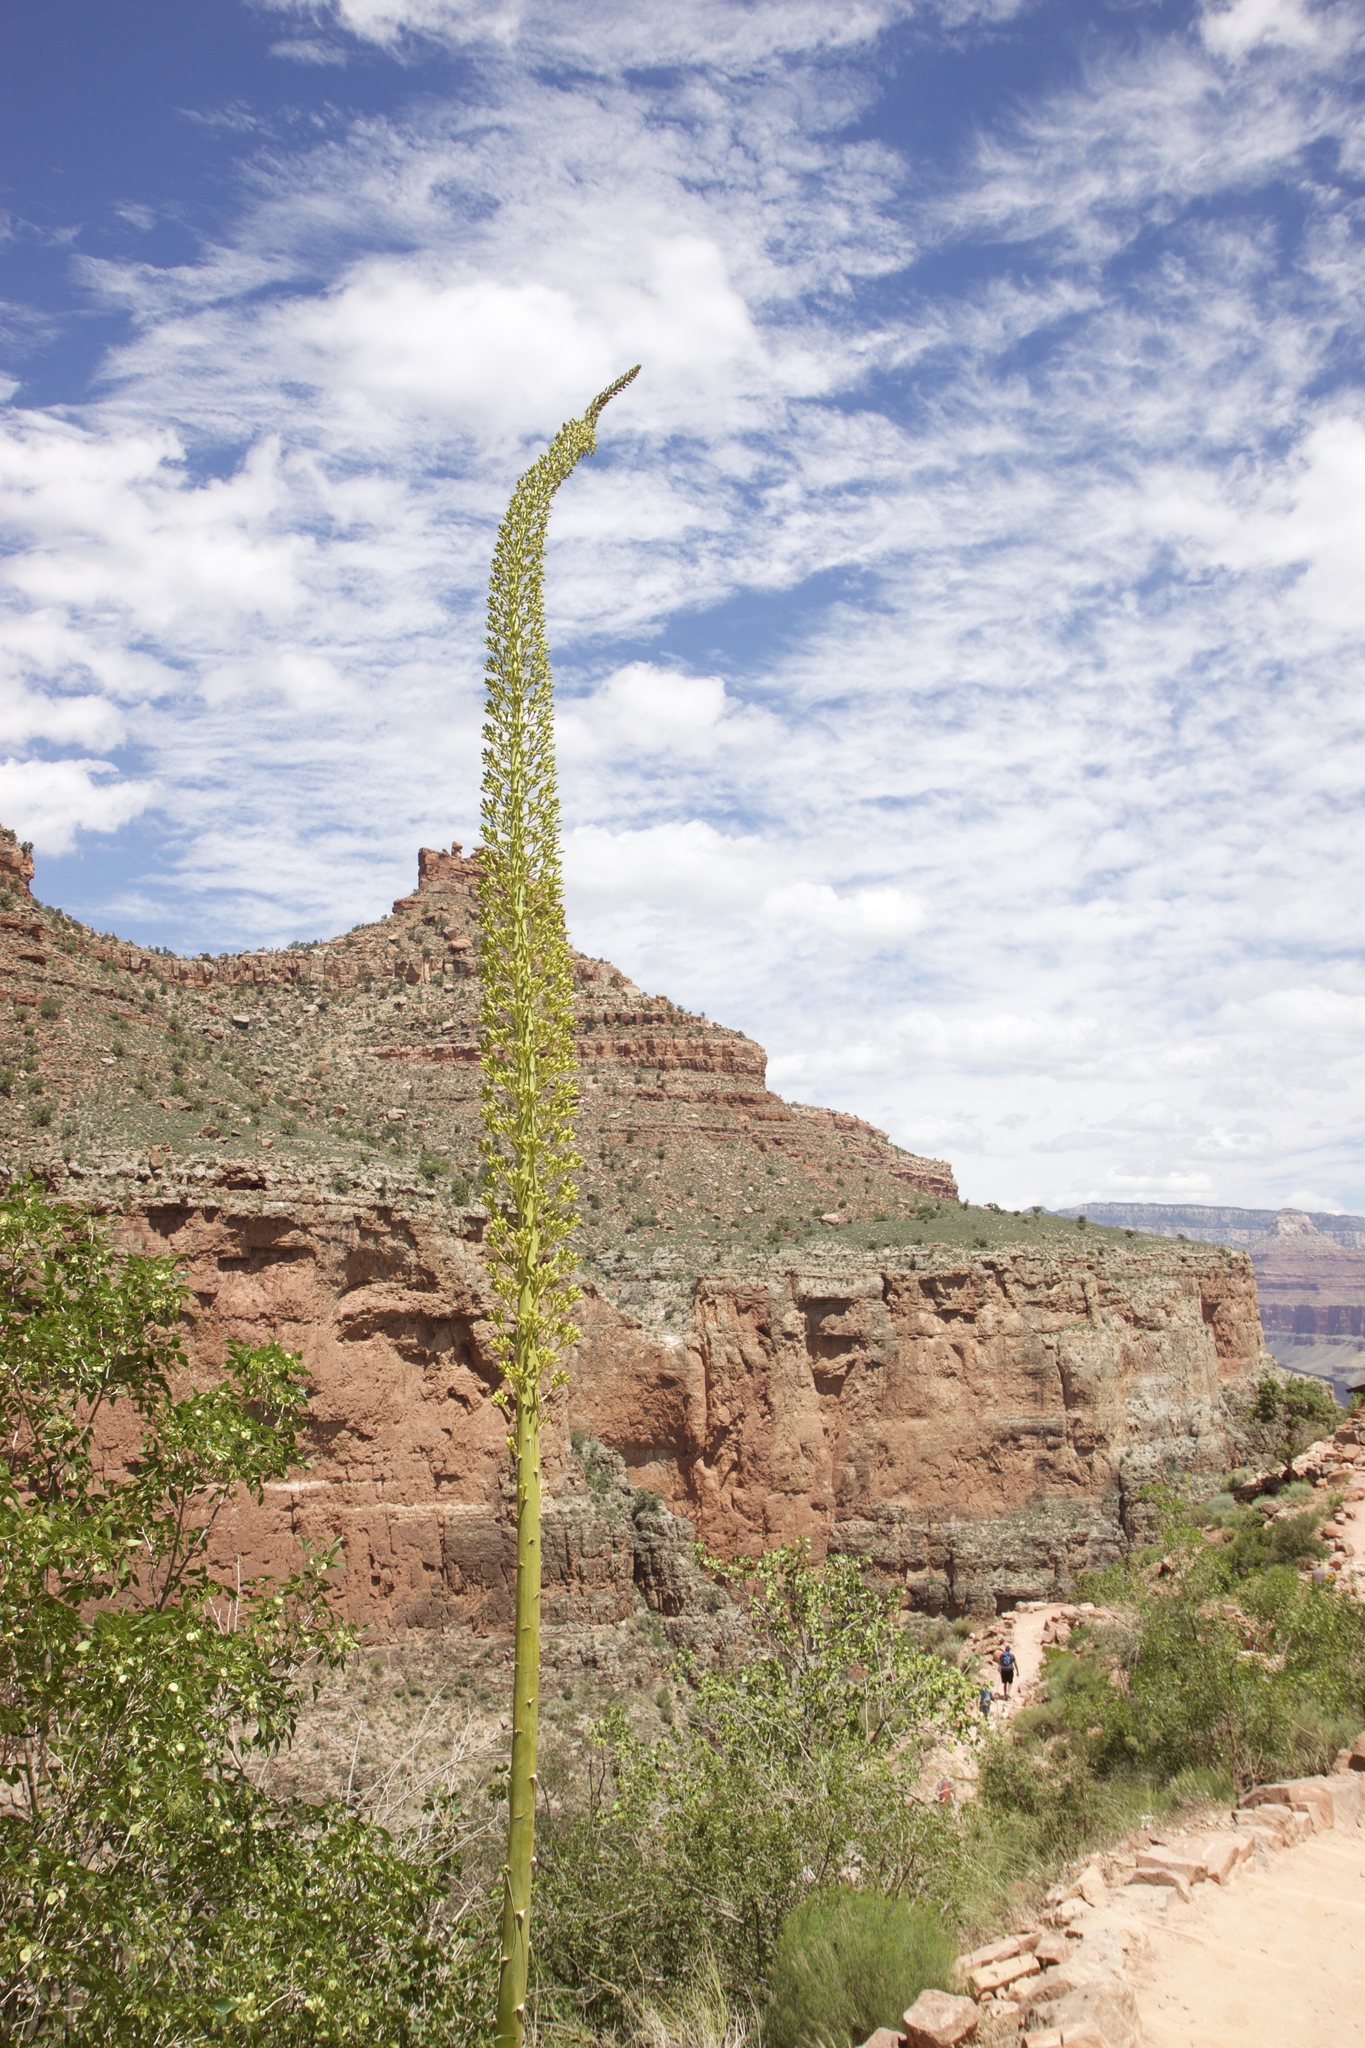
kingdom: Plantae
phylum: Tracheophyta
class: Liliopsida
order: Asparagales
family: Asparagaceae
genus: Agave
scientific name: Agave utahensis
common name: Utah agave
